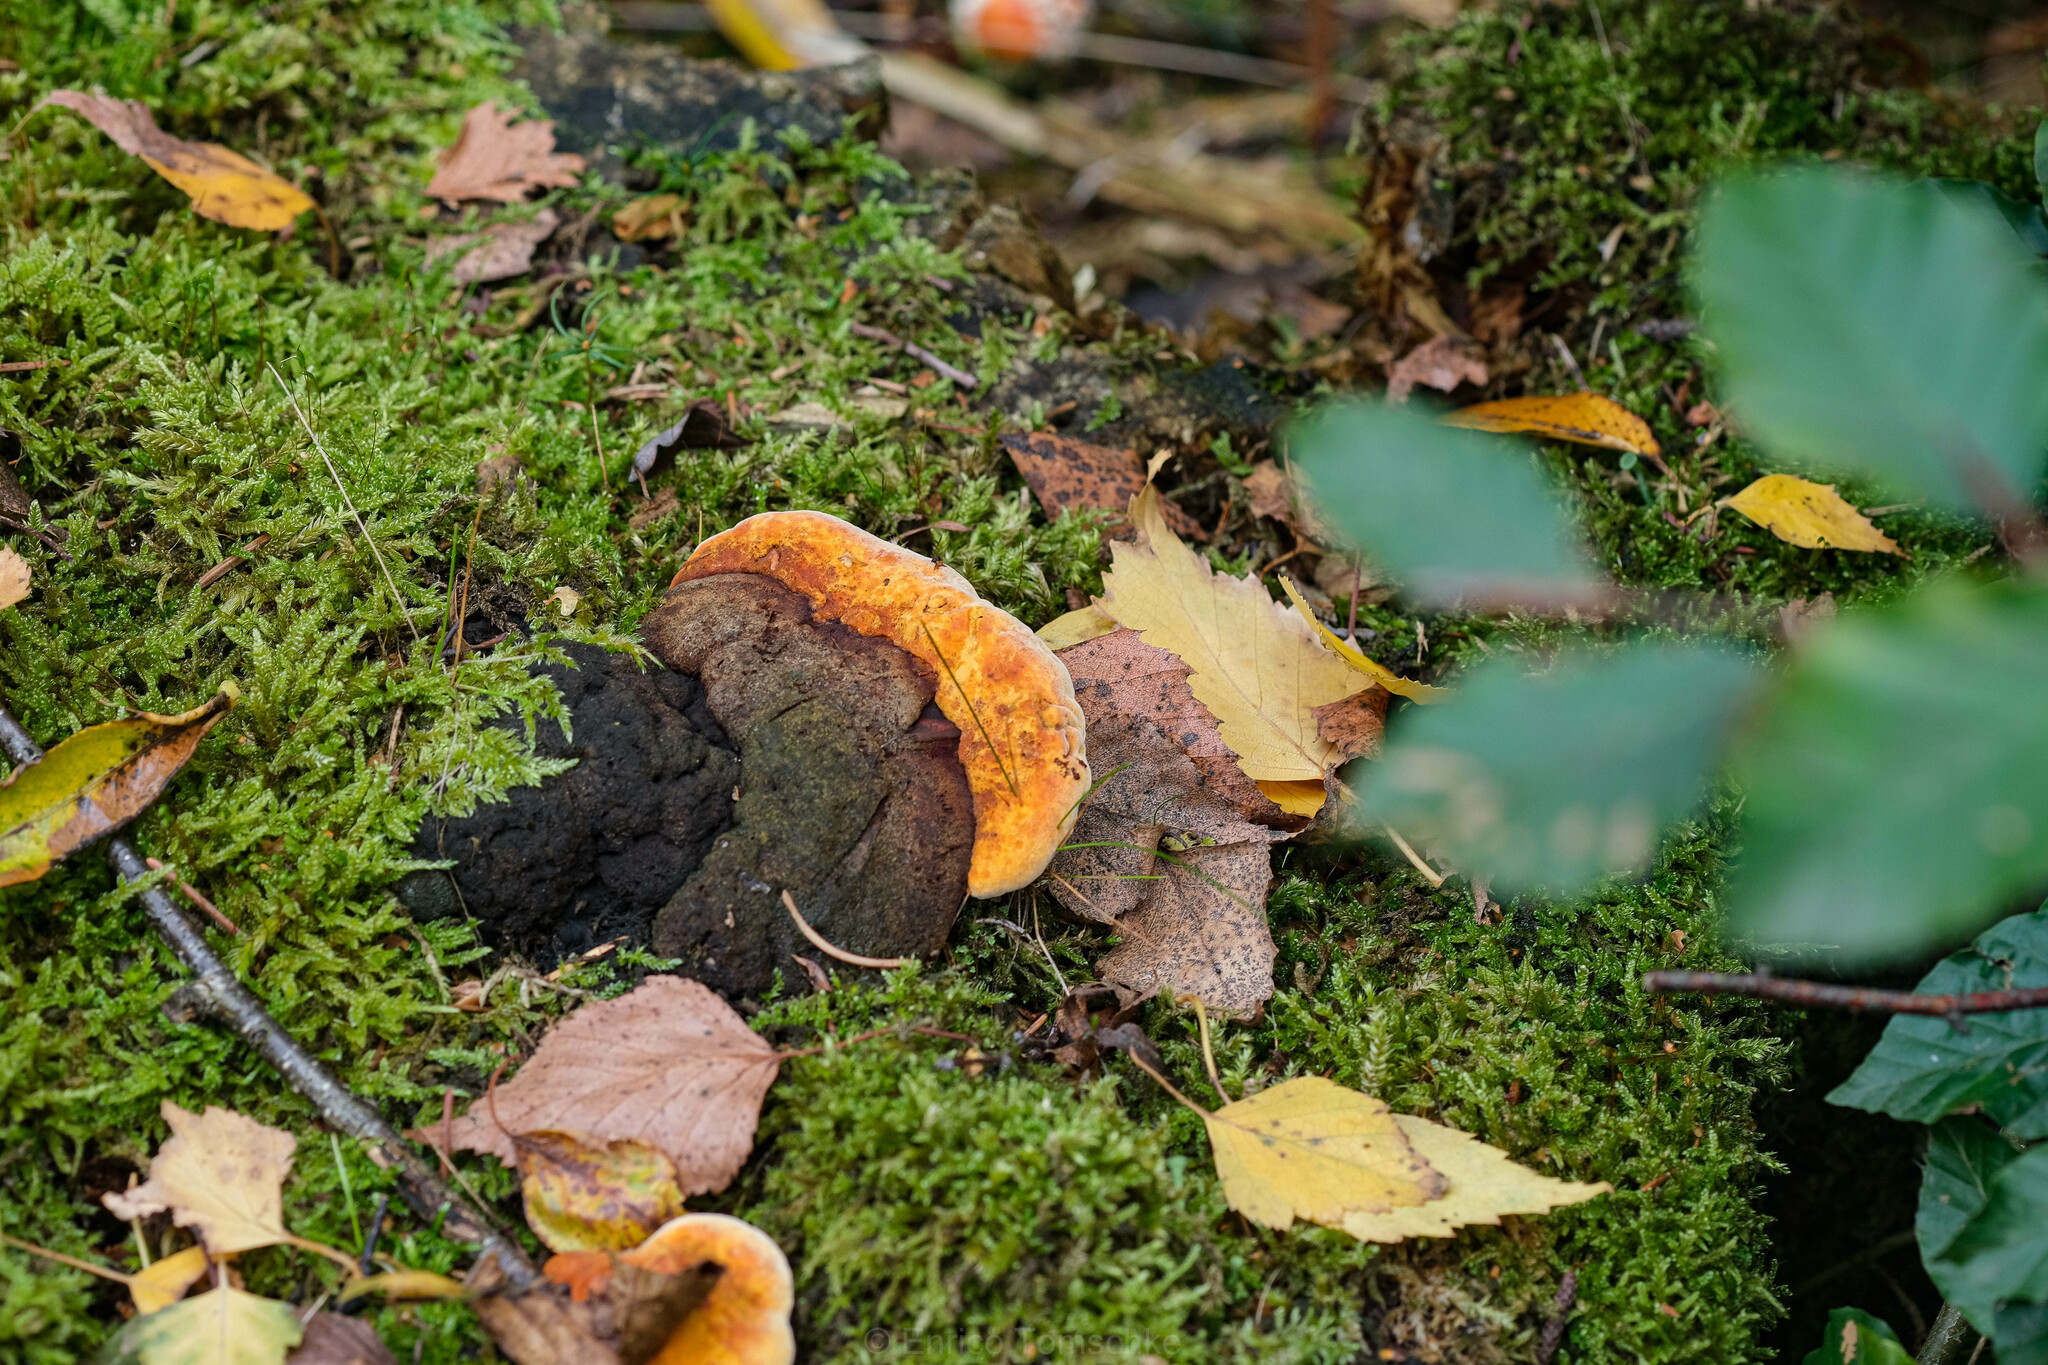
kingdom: Fungi
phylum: Basidiomycota
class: Agaricomycetes
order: Gloeophyllales
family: Gloeophyllaceae
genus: Gloeophyllum
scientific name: Gloeophyllum odoratum
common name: Anise mazegill
